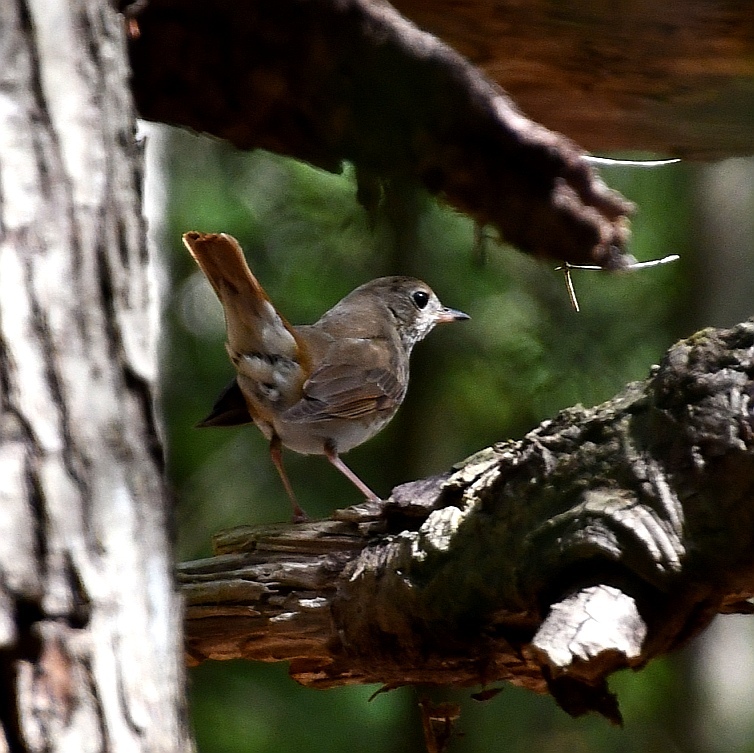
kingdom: Animalia
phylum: Chordata
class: Aves
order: Passeriformes
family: Turdidae
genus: Catharus
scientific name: Catharus guttatus
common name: Hermit thrush
